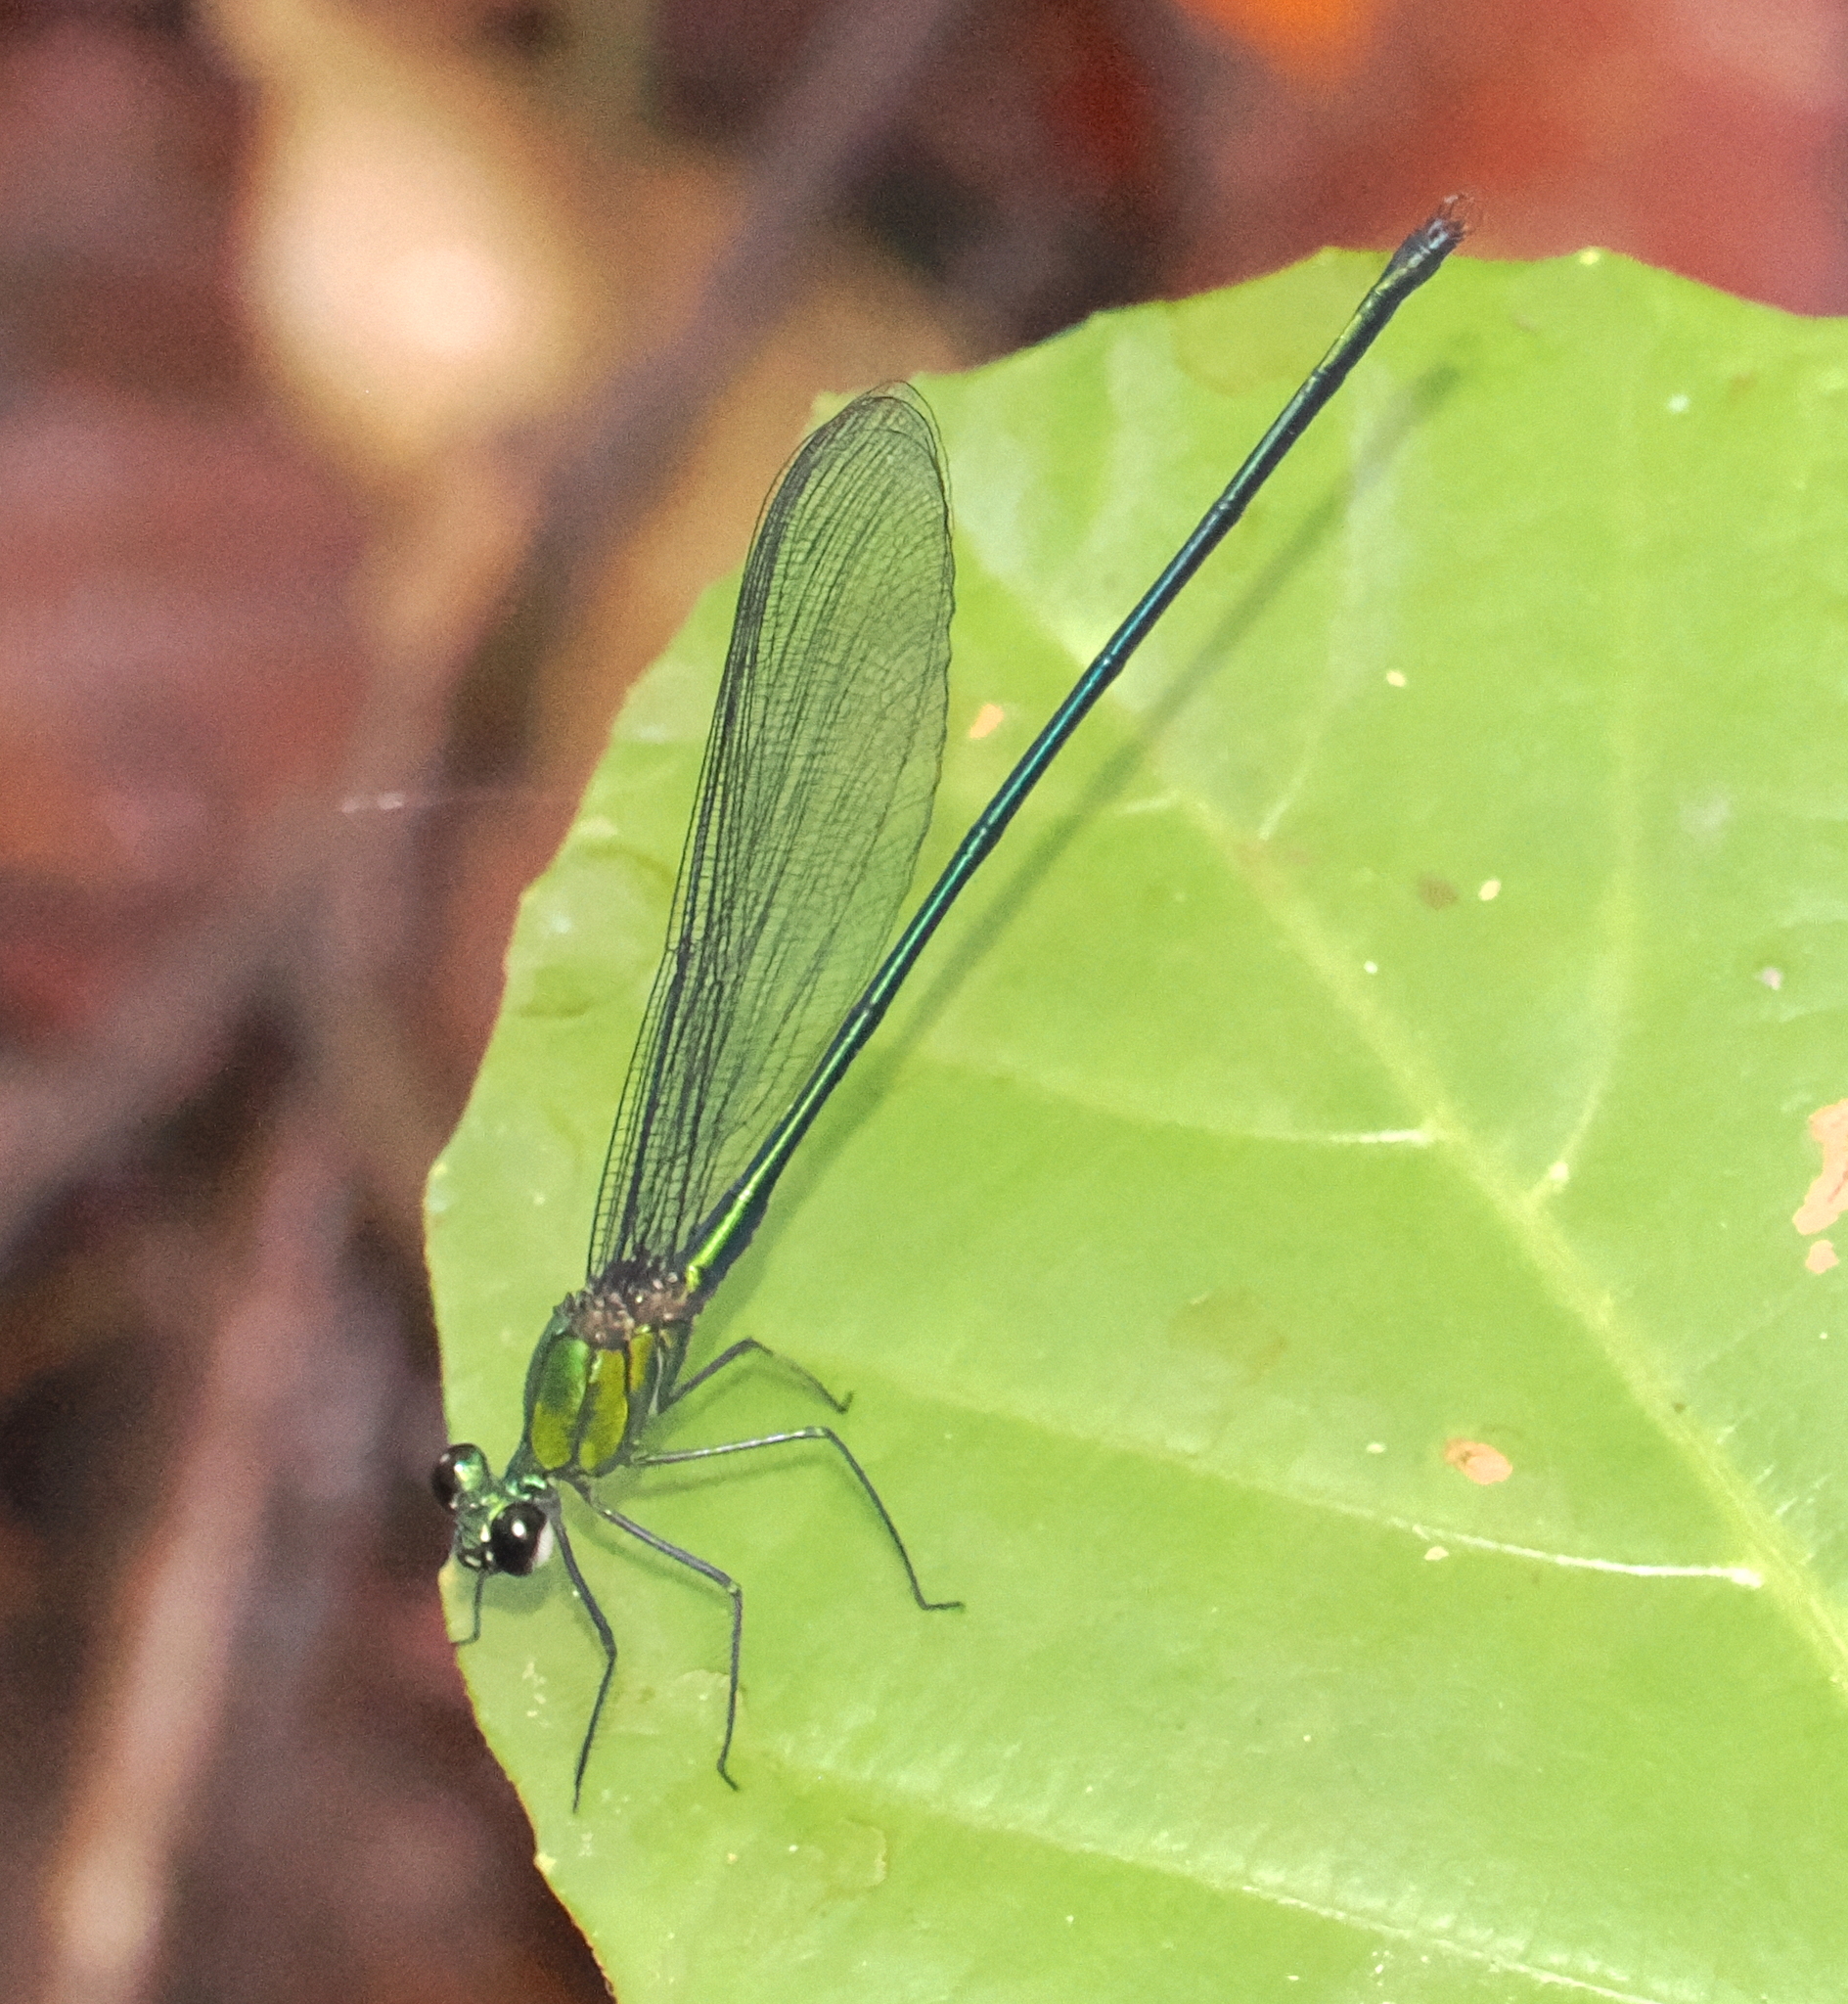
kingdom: Animalia
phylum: Arthropoda
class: Insecta
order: Odonata
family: Calopterygidae
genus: Vestalis
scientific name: Vestalis amethystina
